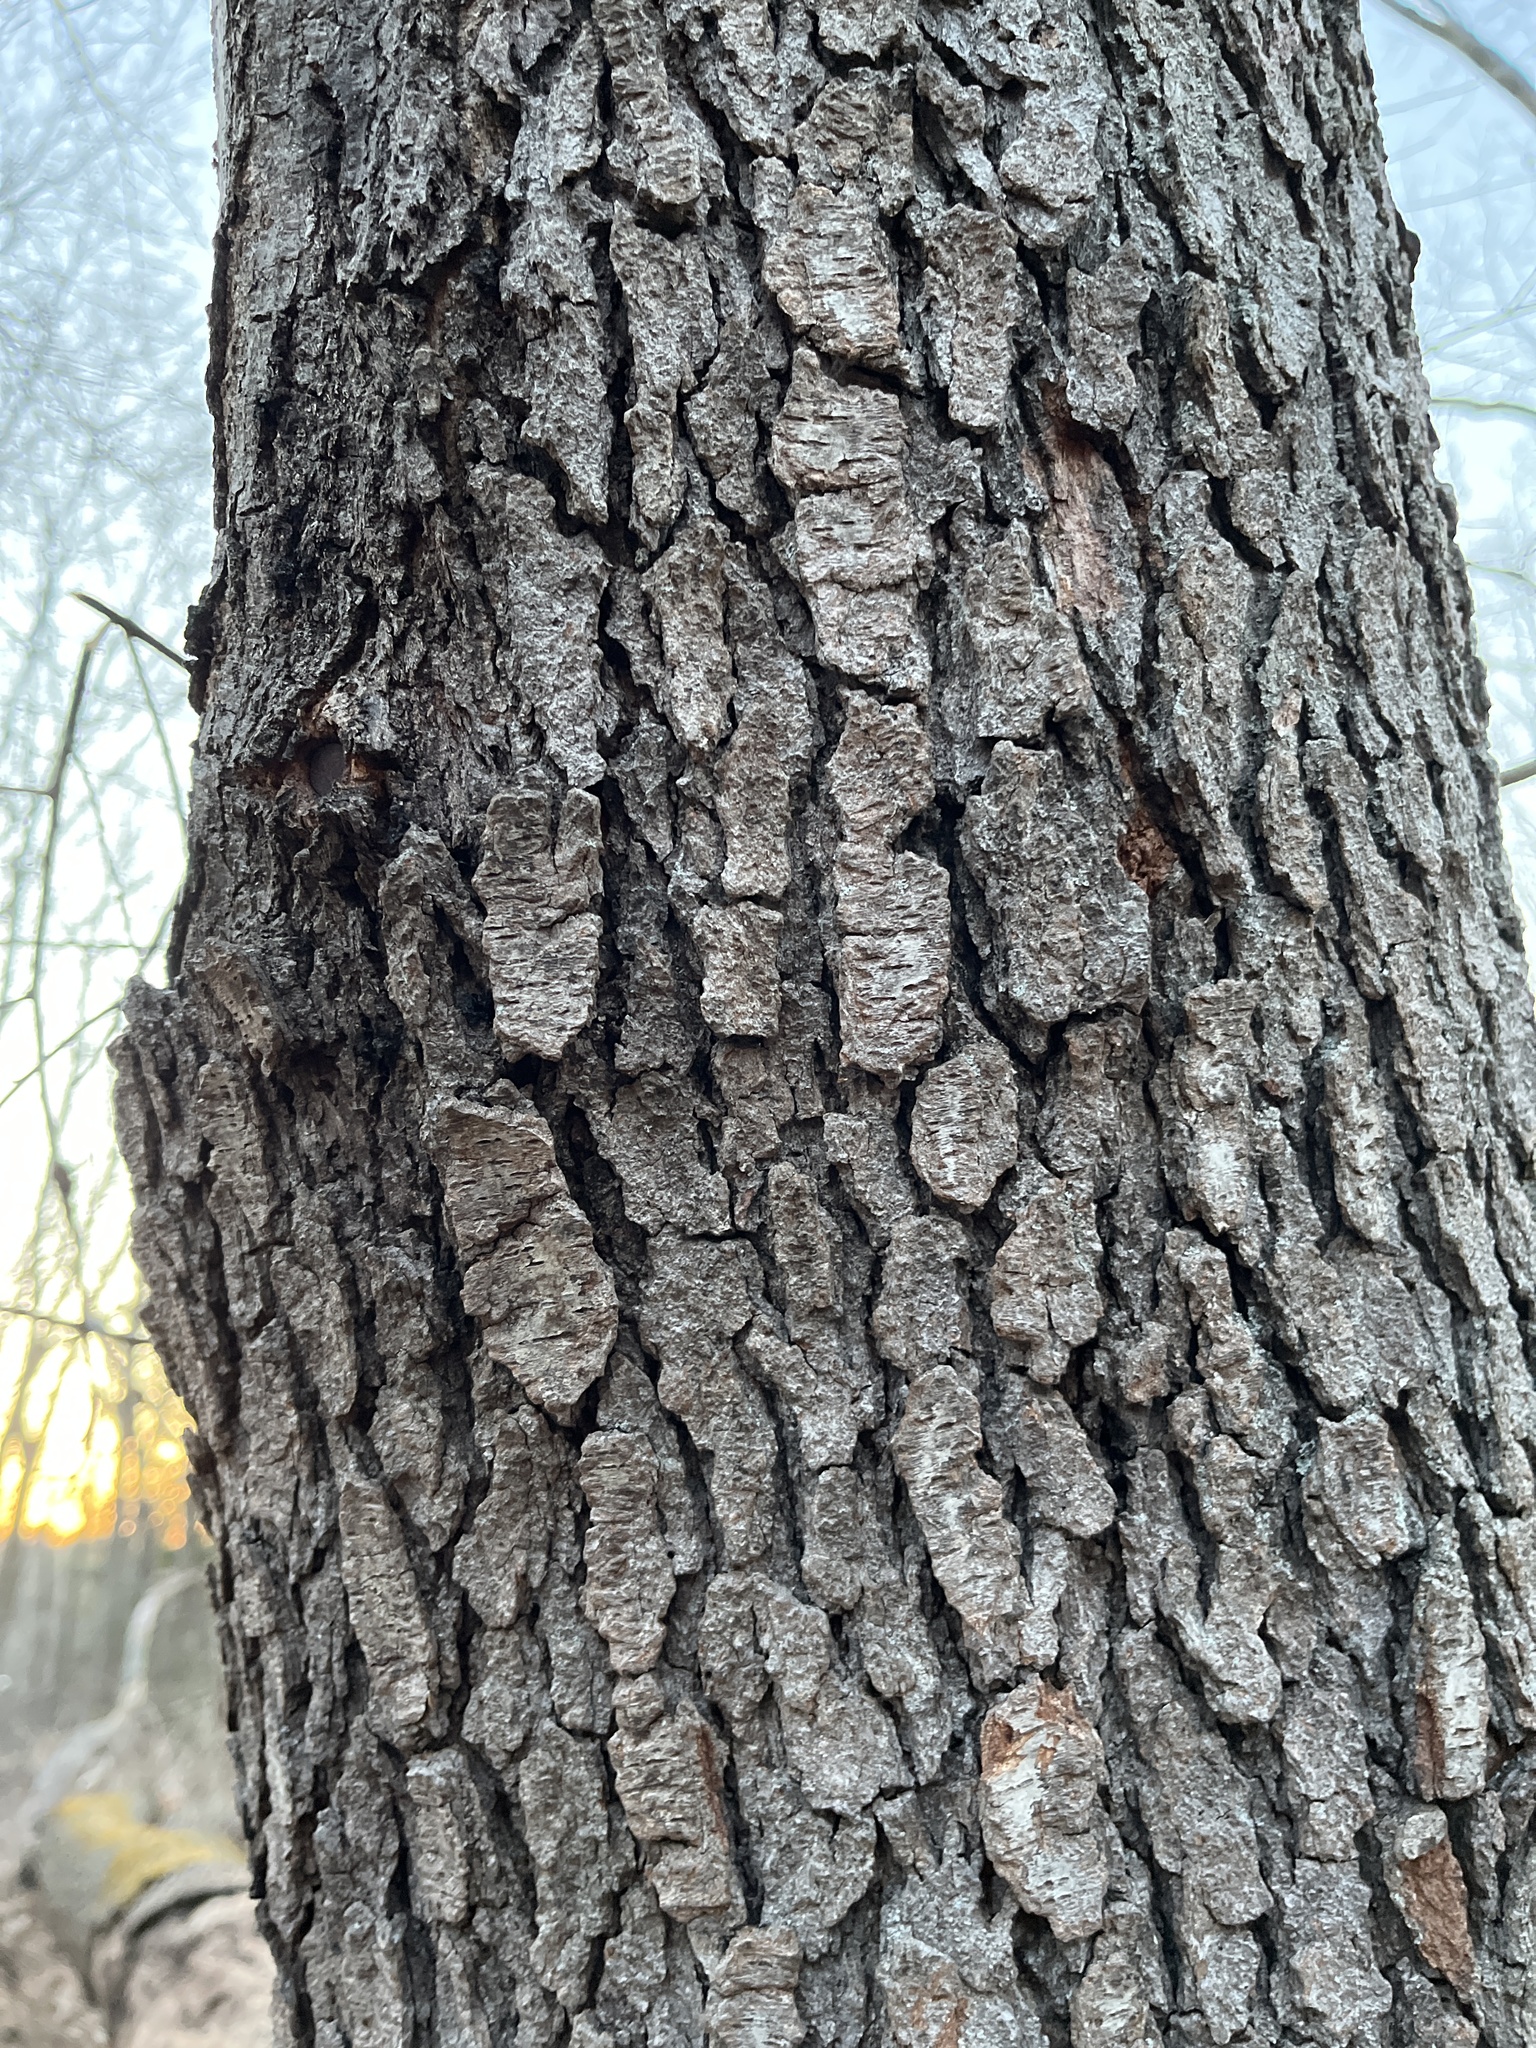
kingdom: Plantae
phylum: Tracheophyta
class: Magnoliopsida
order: Rosales
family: Rosaceae
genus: Prunus
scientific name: Prunus serotina
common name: Black cherry
